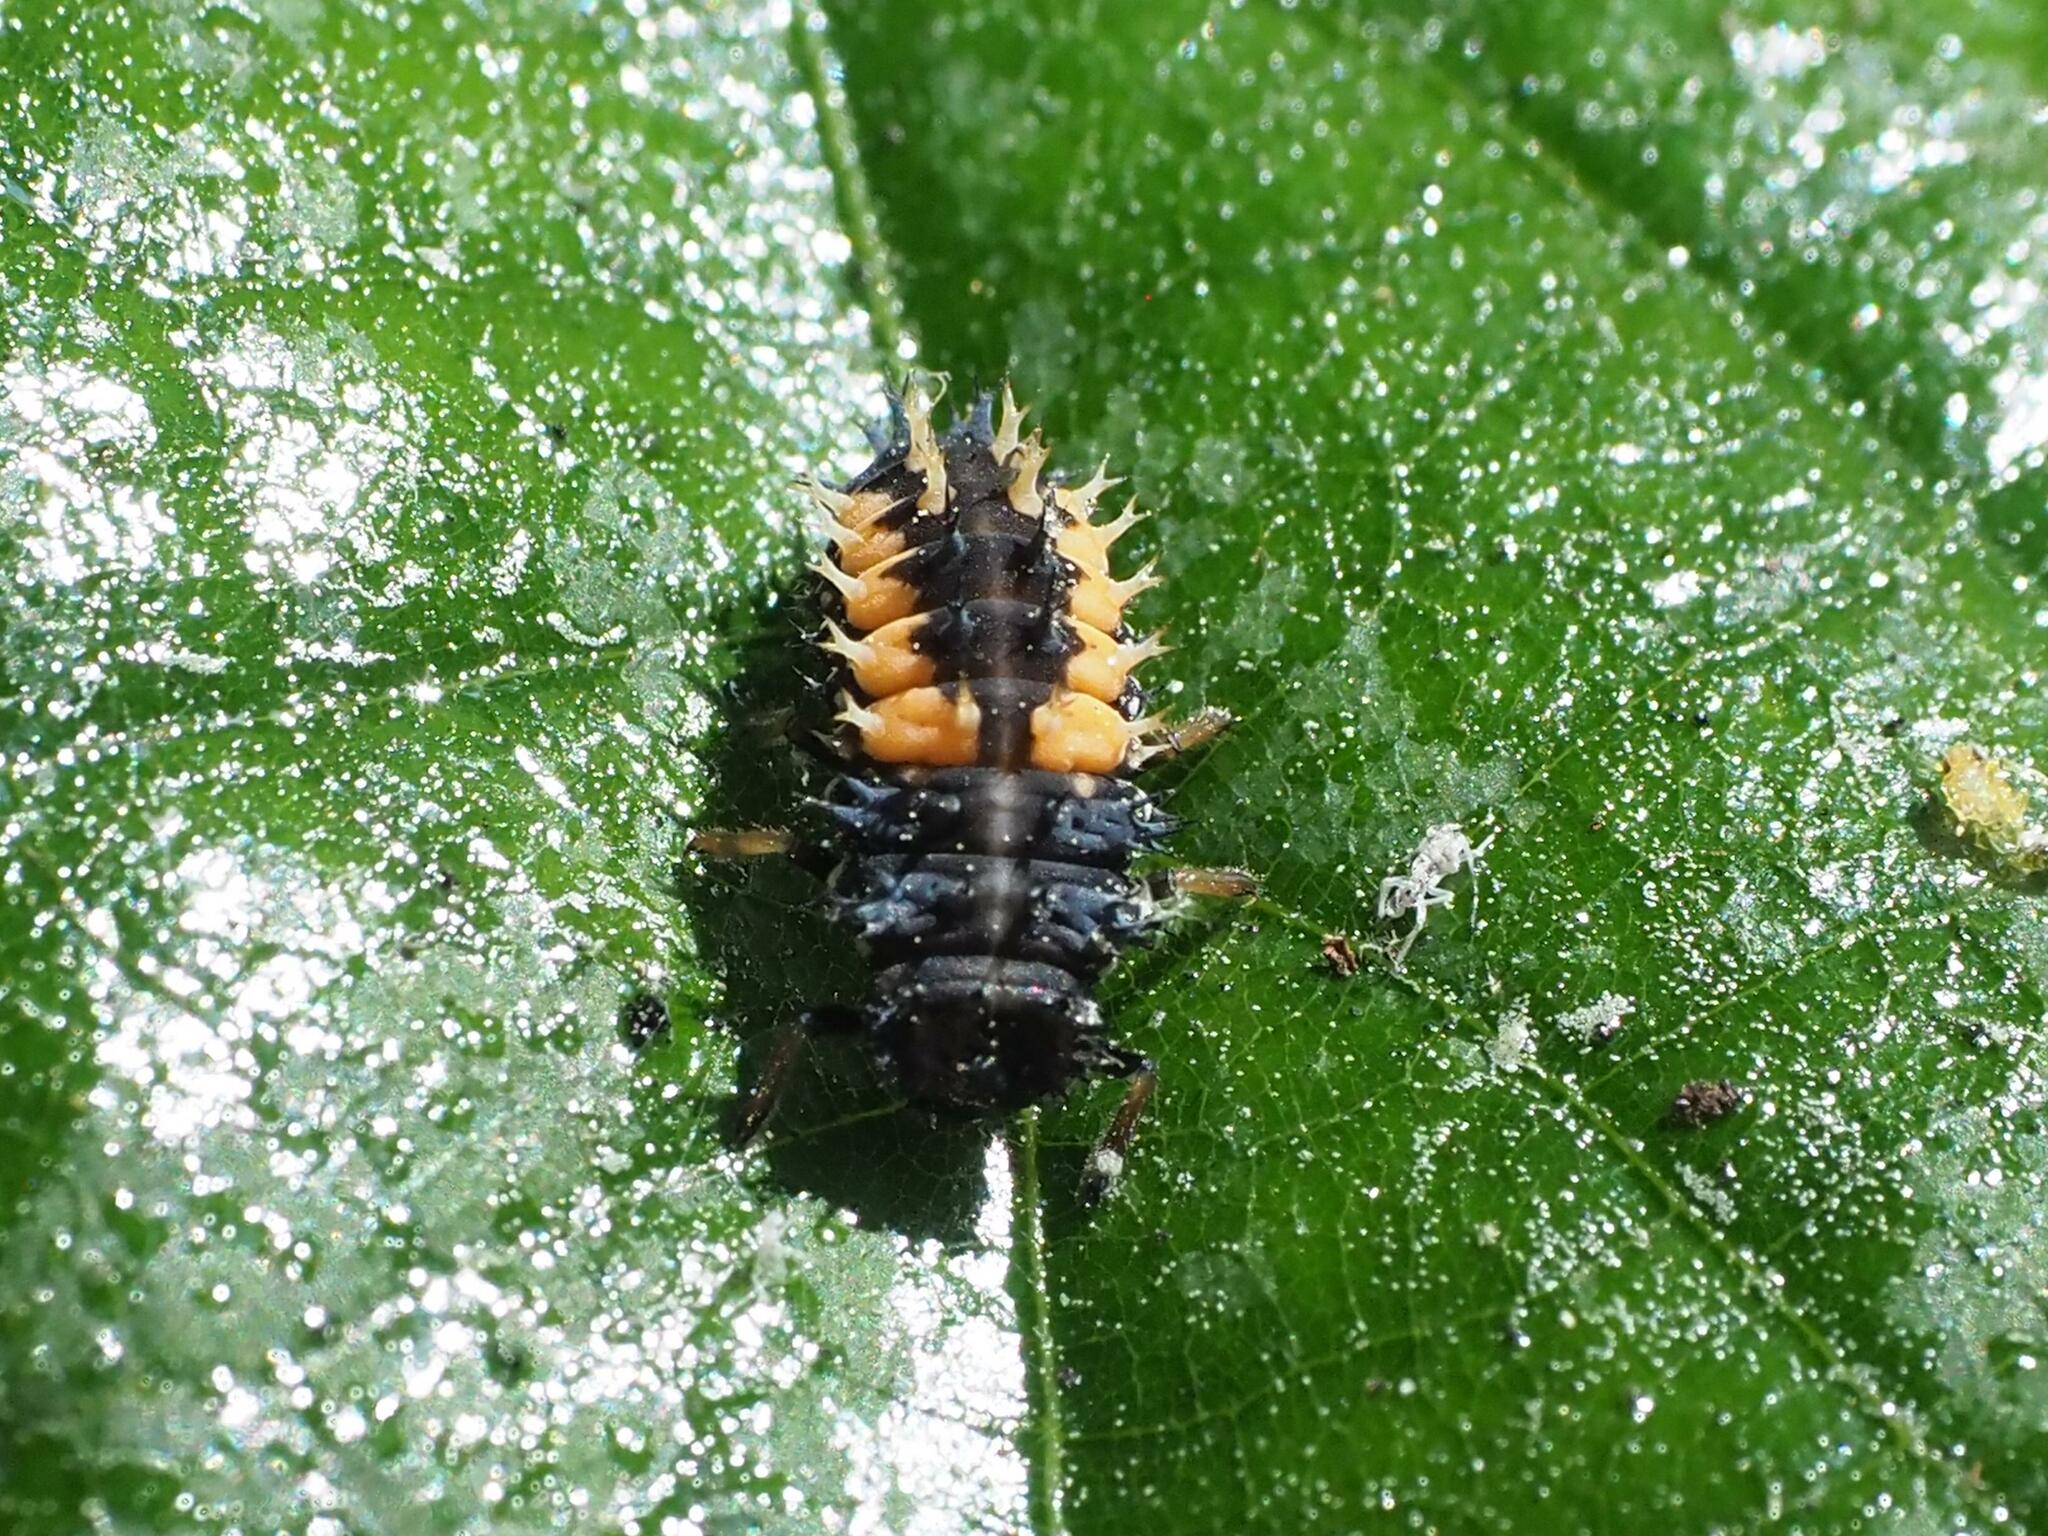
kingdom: Animalia
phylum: Arthropoda
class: Insecta
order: Coleoptera
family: Coccinellidae
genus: Harmonia
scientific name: Harmonia axyridis
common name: Harlequin ladybird
